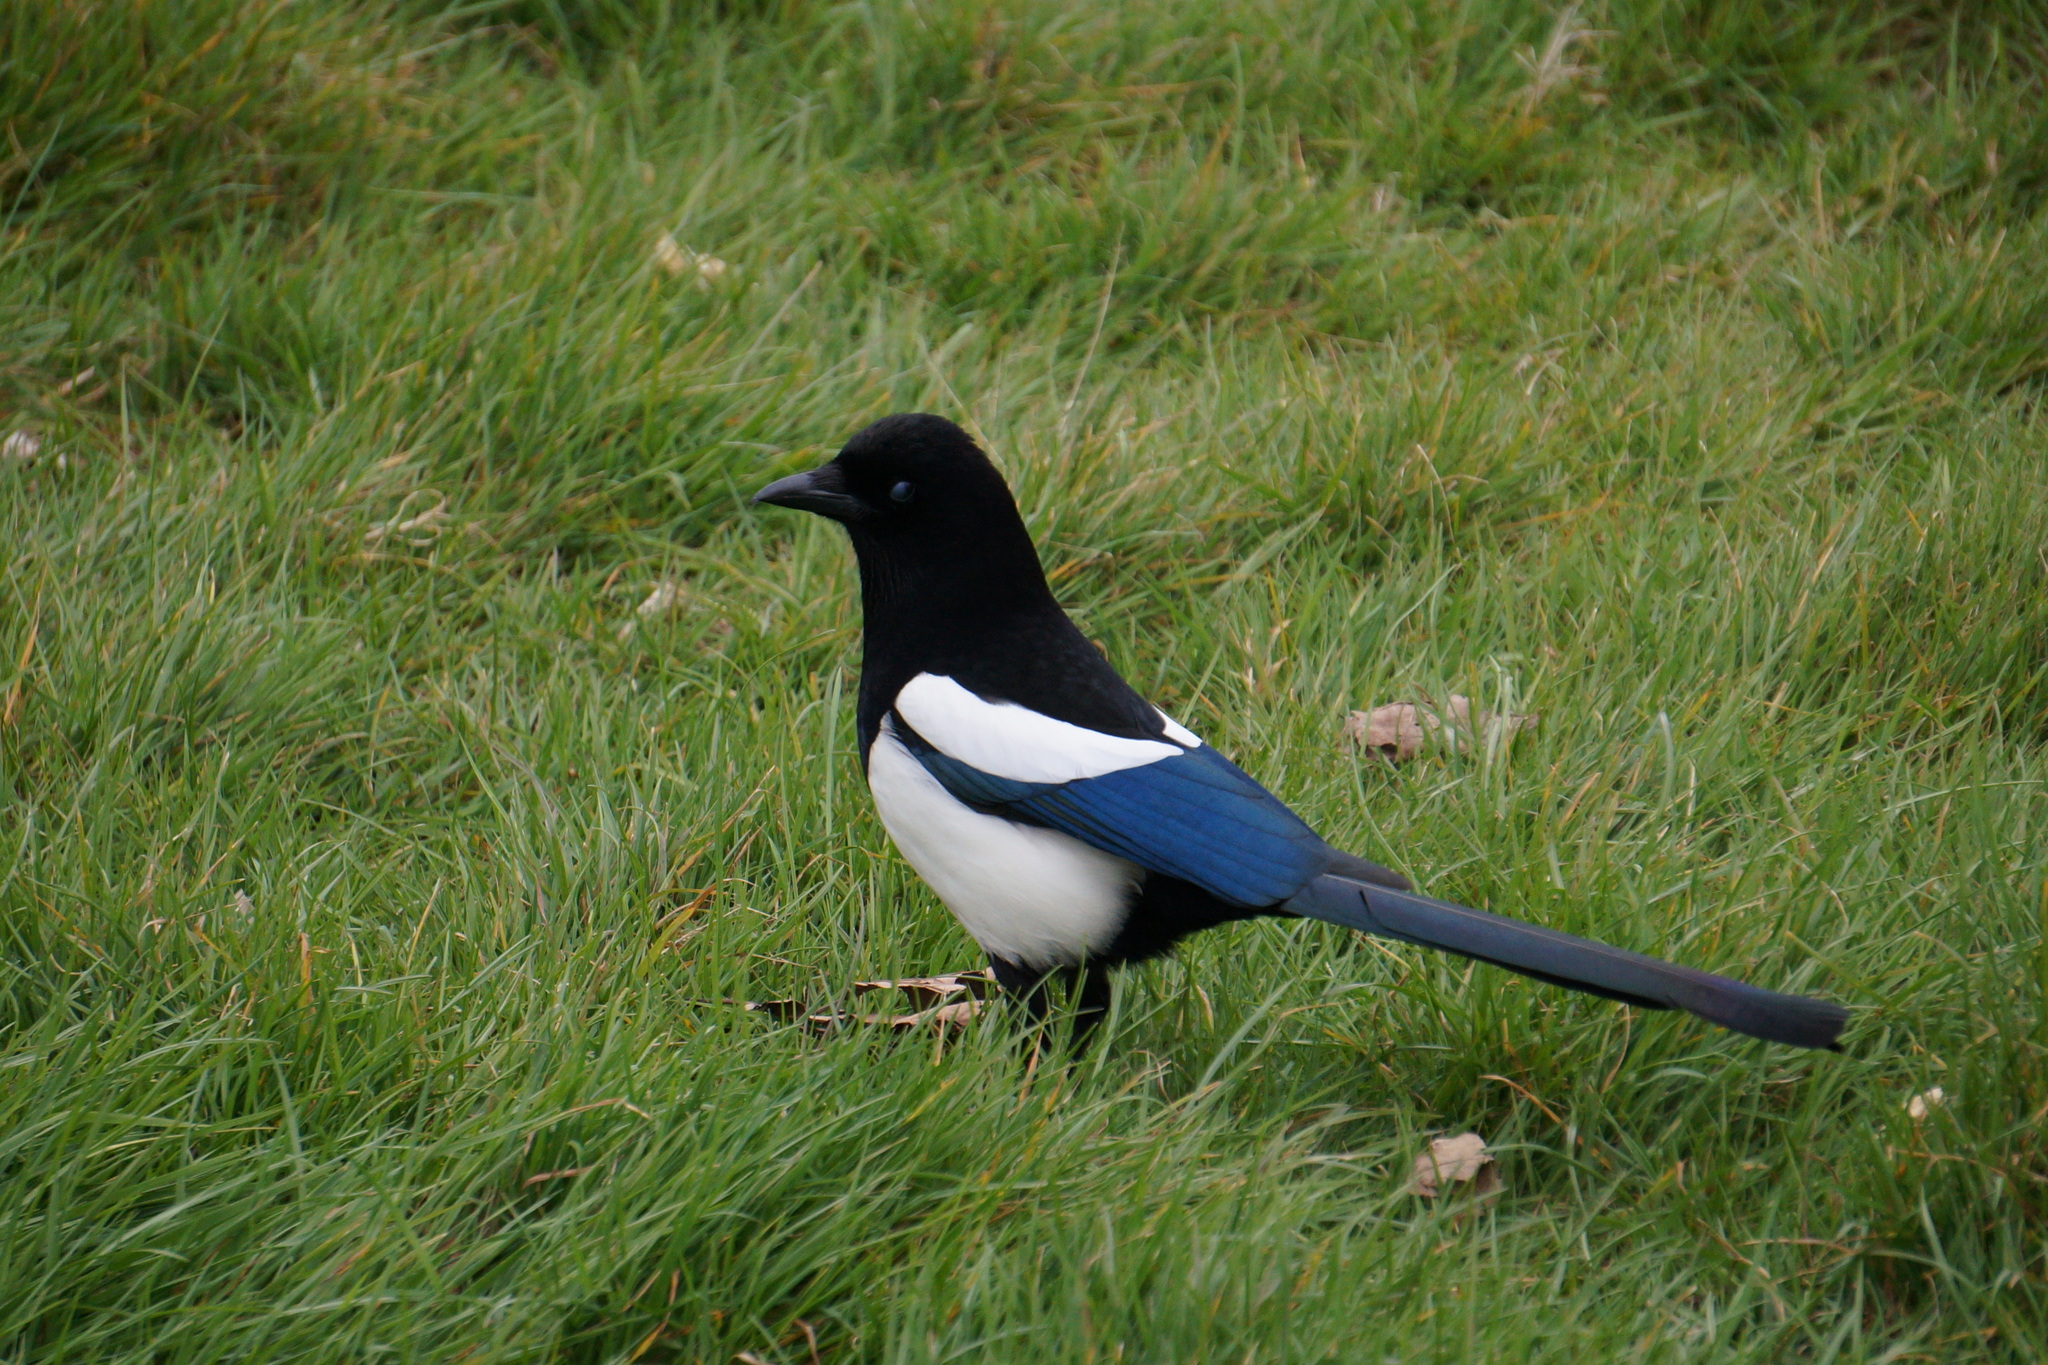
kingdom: Animalia
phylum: Chordata
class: Aves
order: Passeriformes
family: Corvidae
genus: Pica
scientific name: Pica pica
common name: Eurasian magpie
